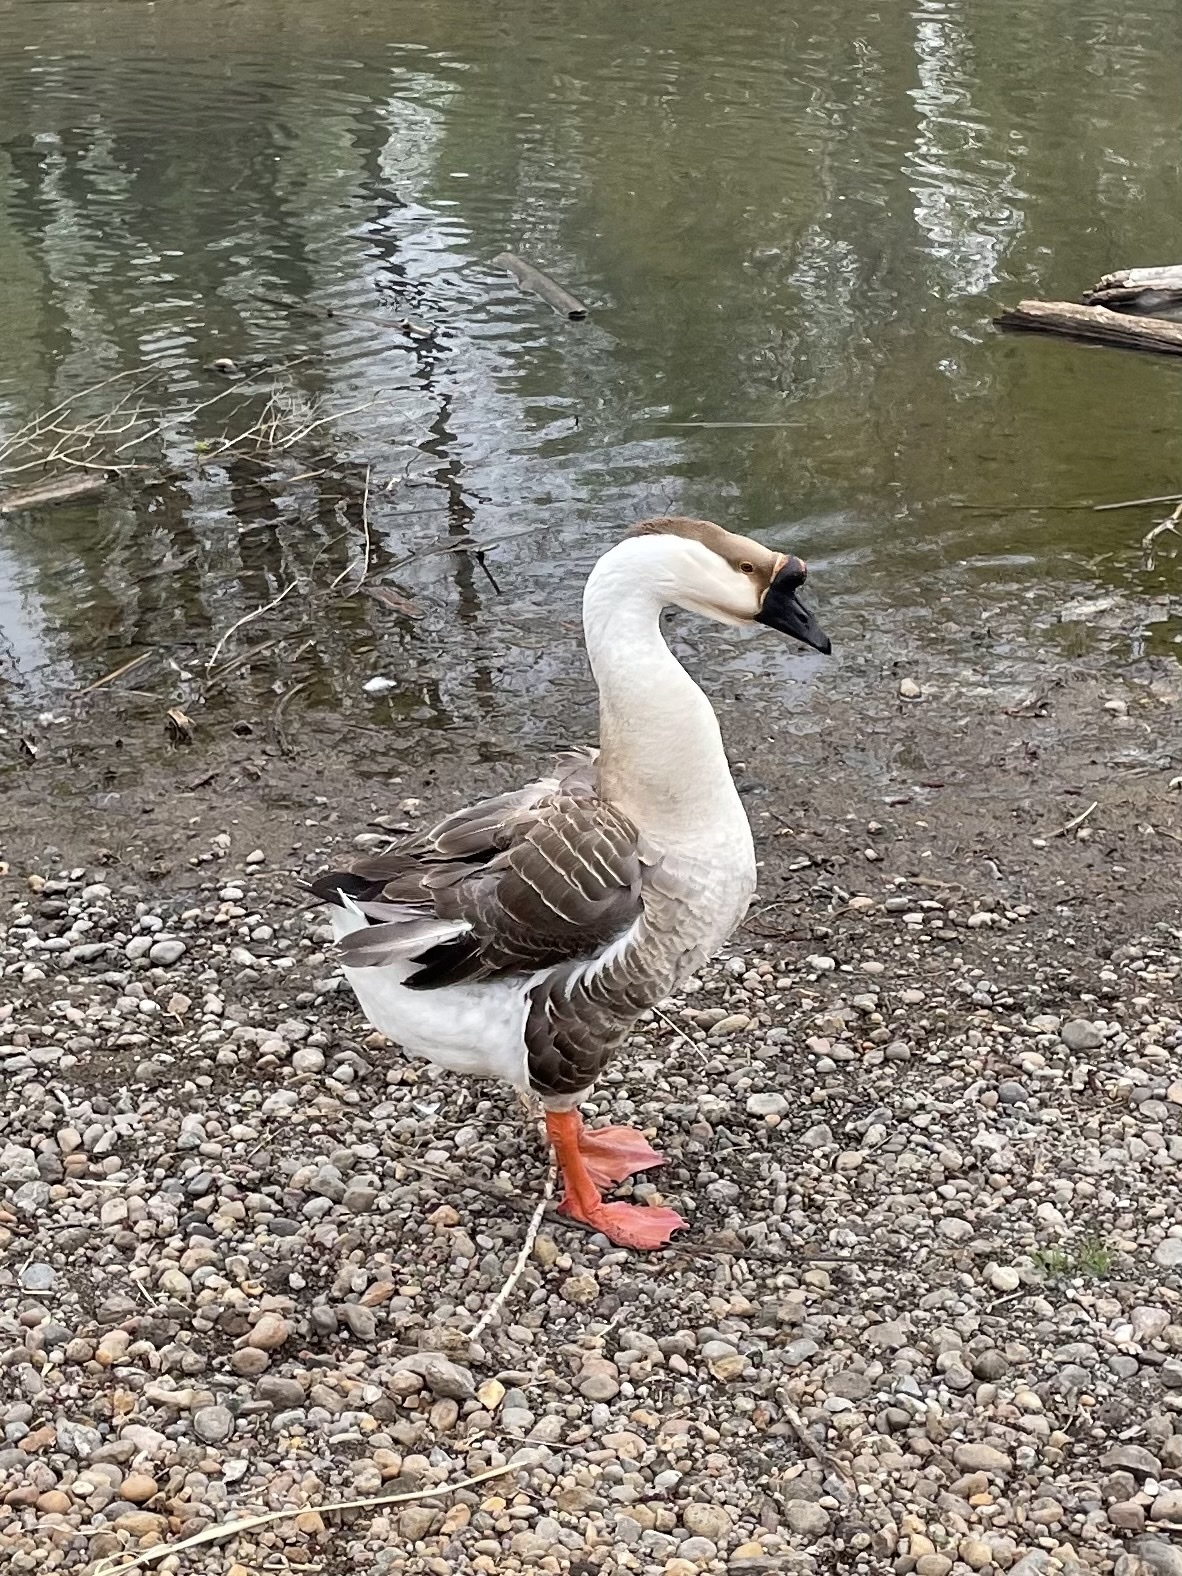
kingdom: Animalia
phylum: Chordata
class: Aves
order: Anseriformes
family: Anatidae
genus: Anser
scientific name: Anser cygnoides
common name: Swan goose
